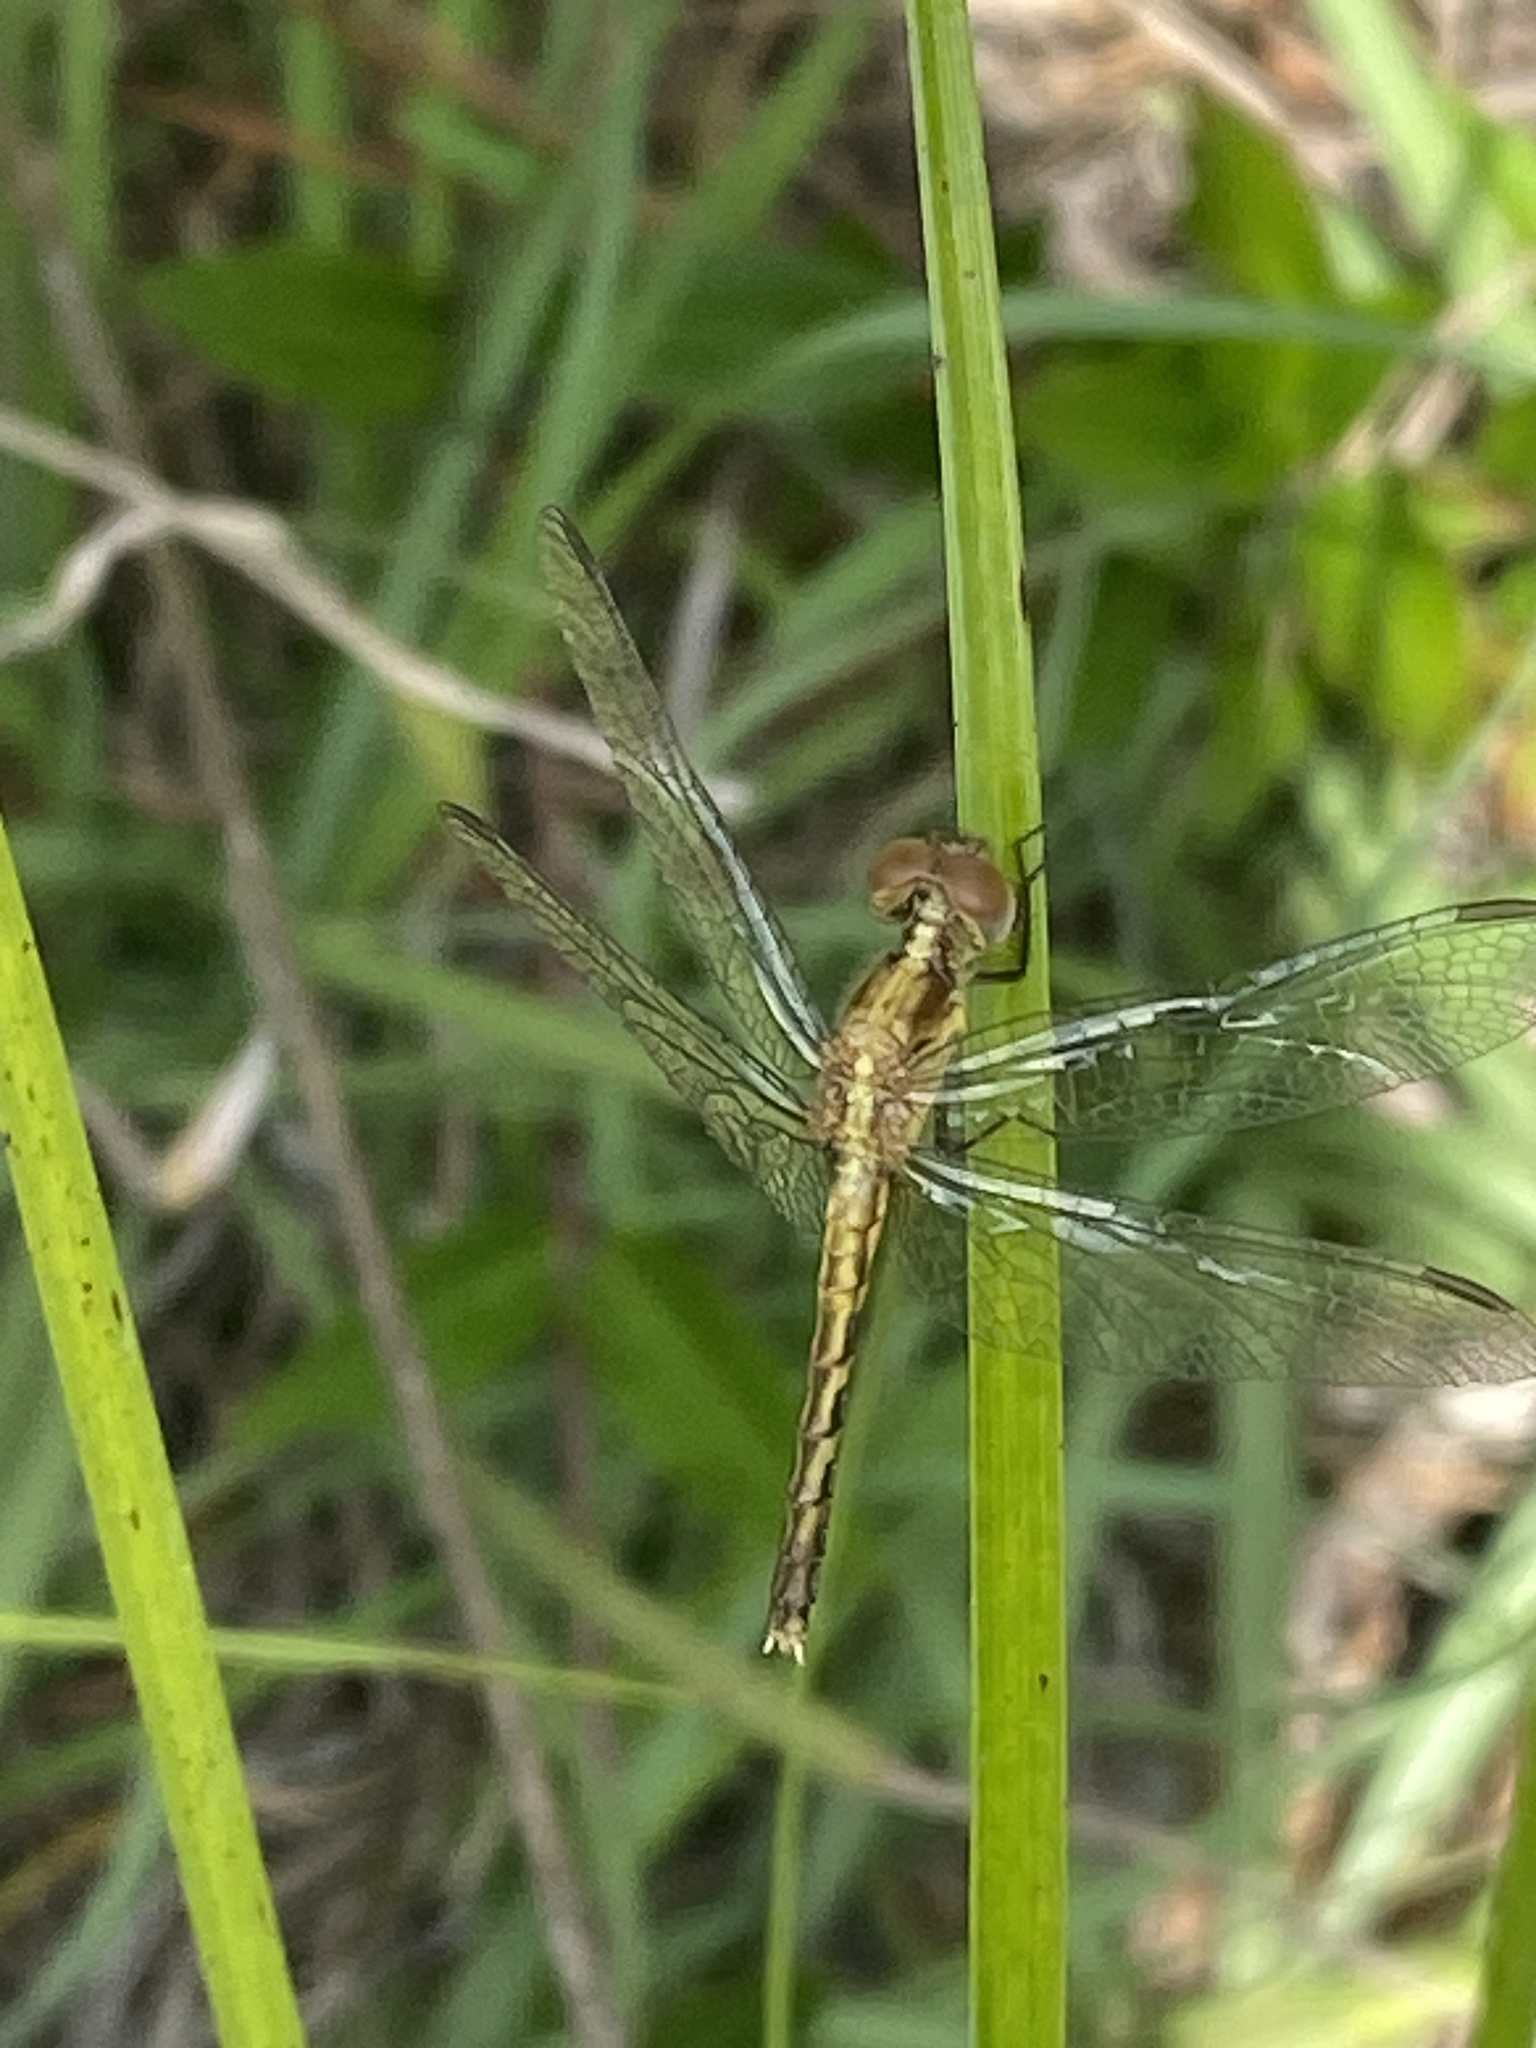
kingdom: Animalia
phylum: Arthropoda
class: Insecta
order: Odonata
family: Libellulidae
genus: Erythrodiplax
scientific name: Erythrodiplax minuscula
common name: Little blue dragonlet
